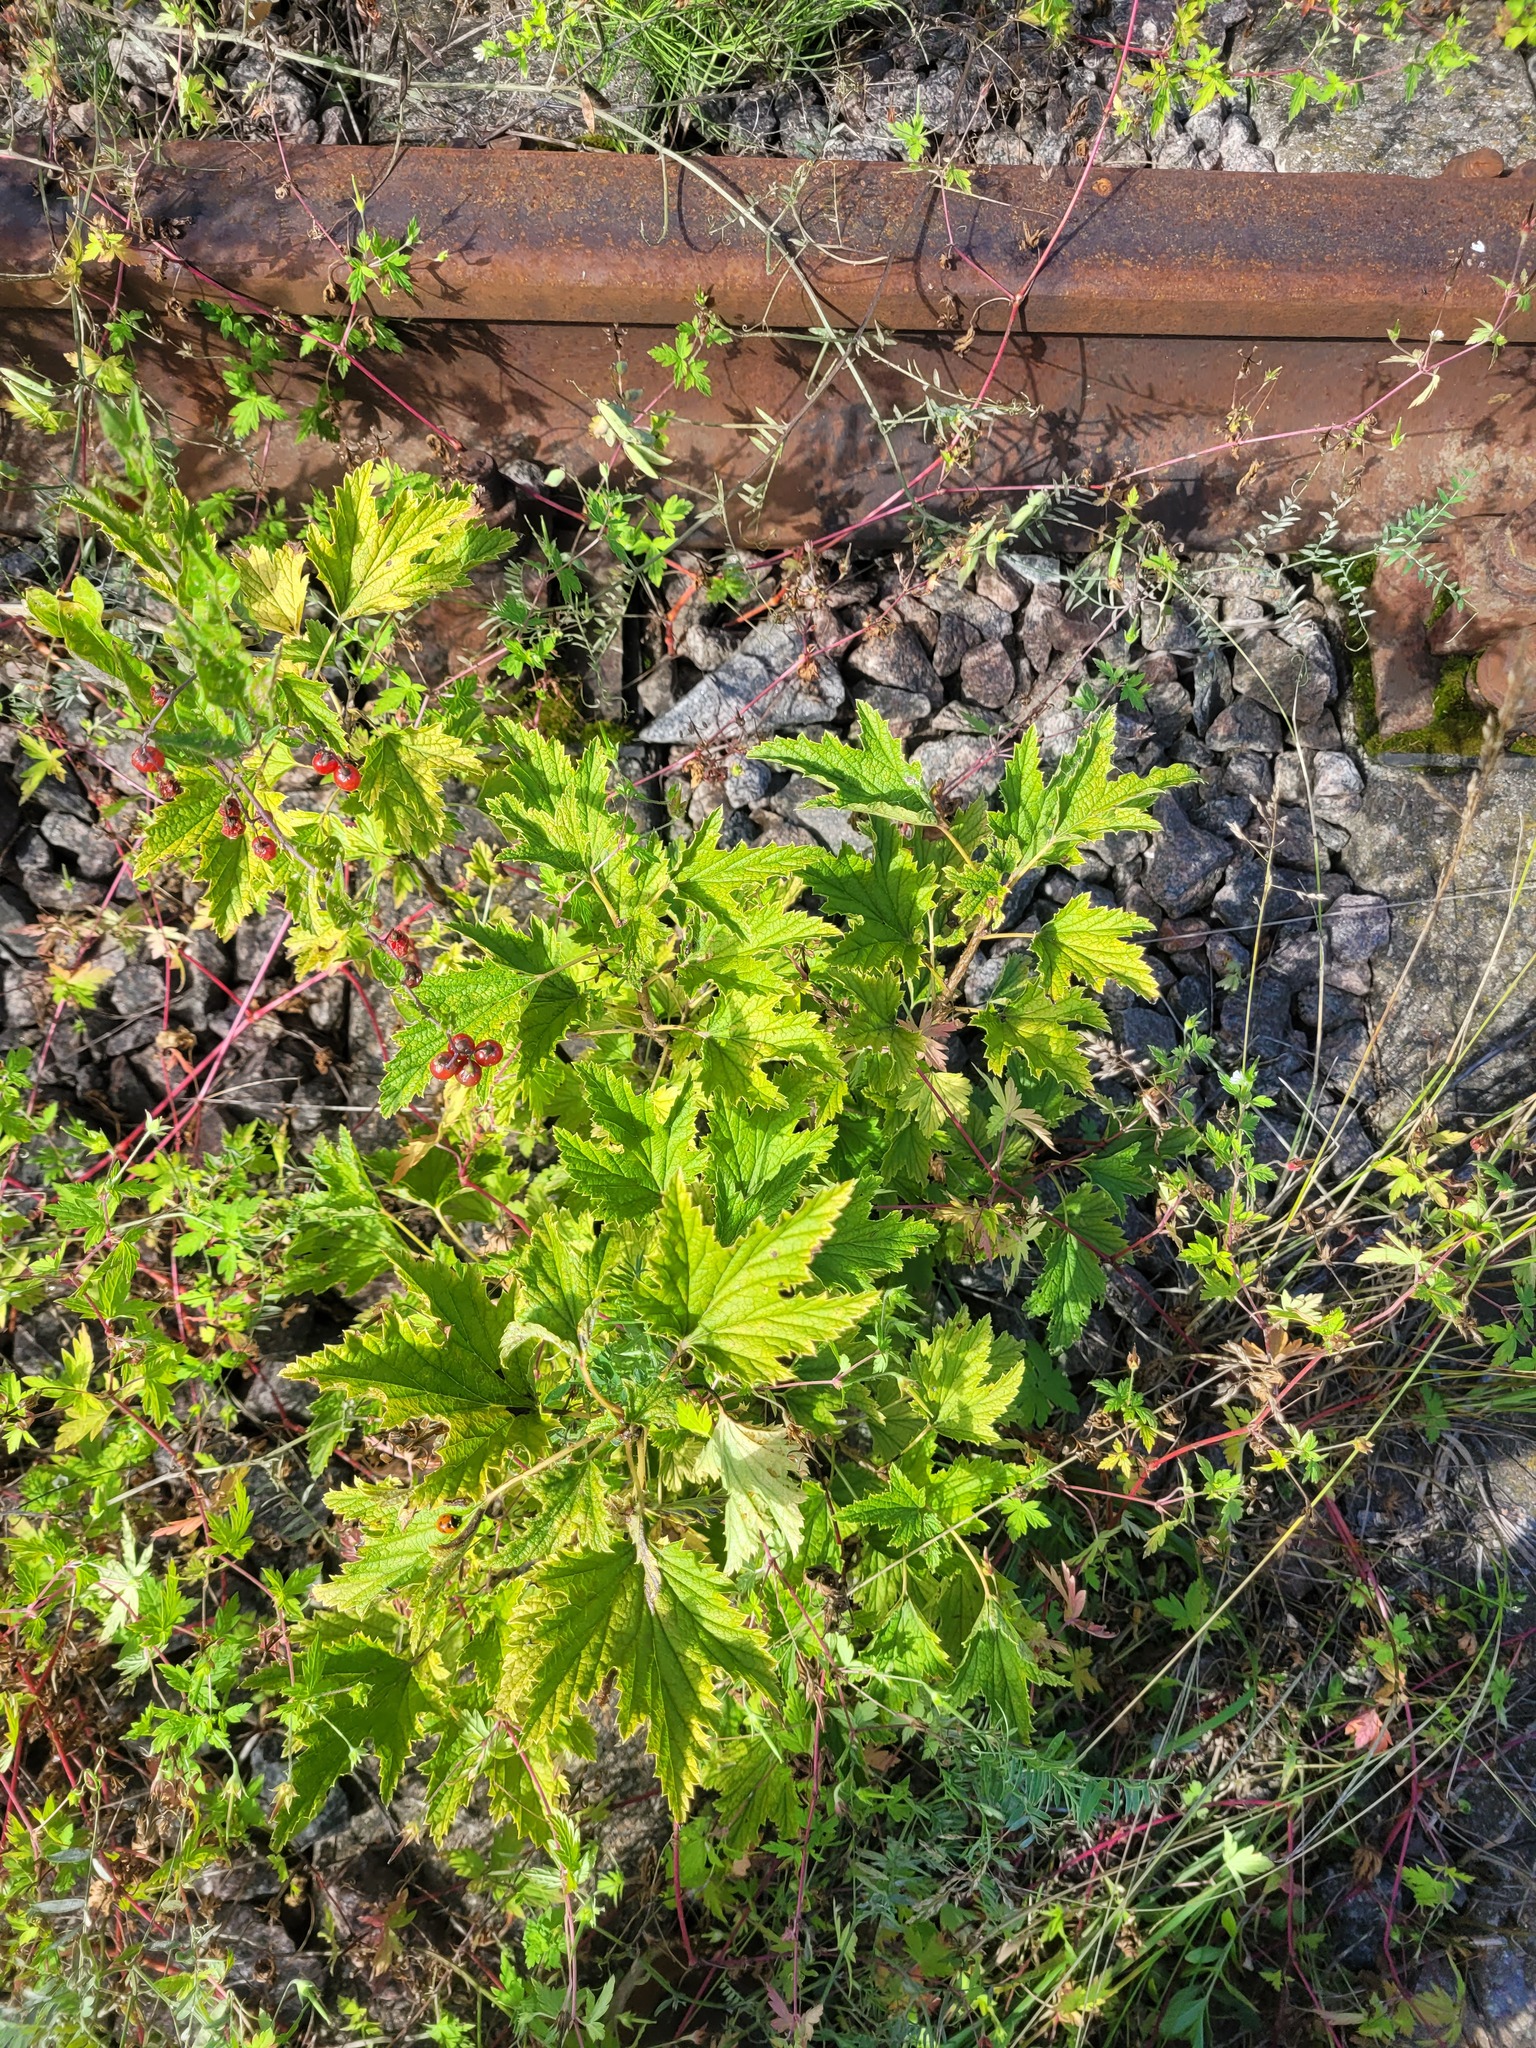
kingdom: Plantae
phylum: Tracheophyta
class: Magnoliopsida
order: Saxifragales
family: Grossulariaceae
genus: Ribes
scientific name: Ribes rubrum
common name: Red currant
